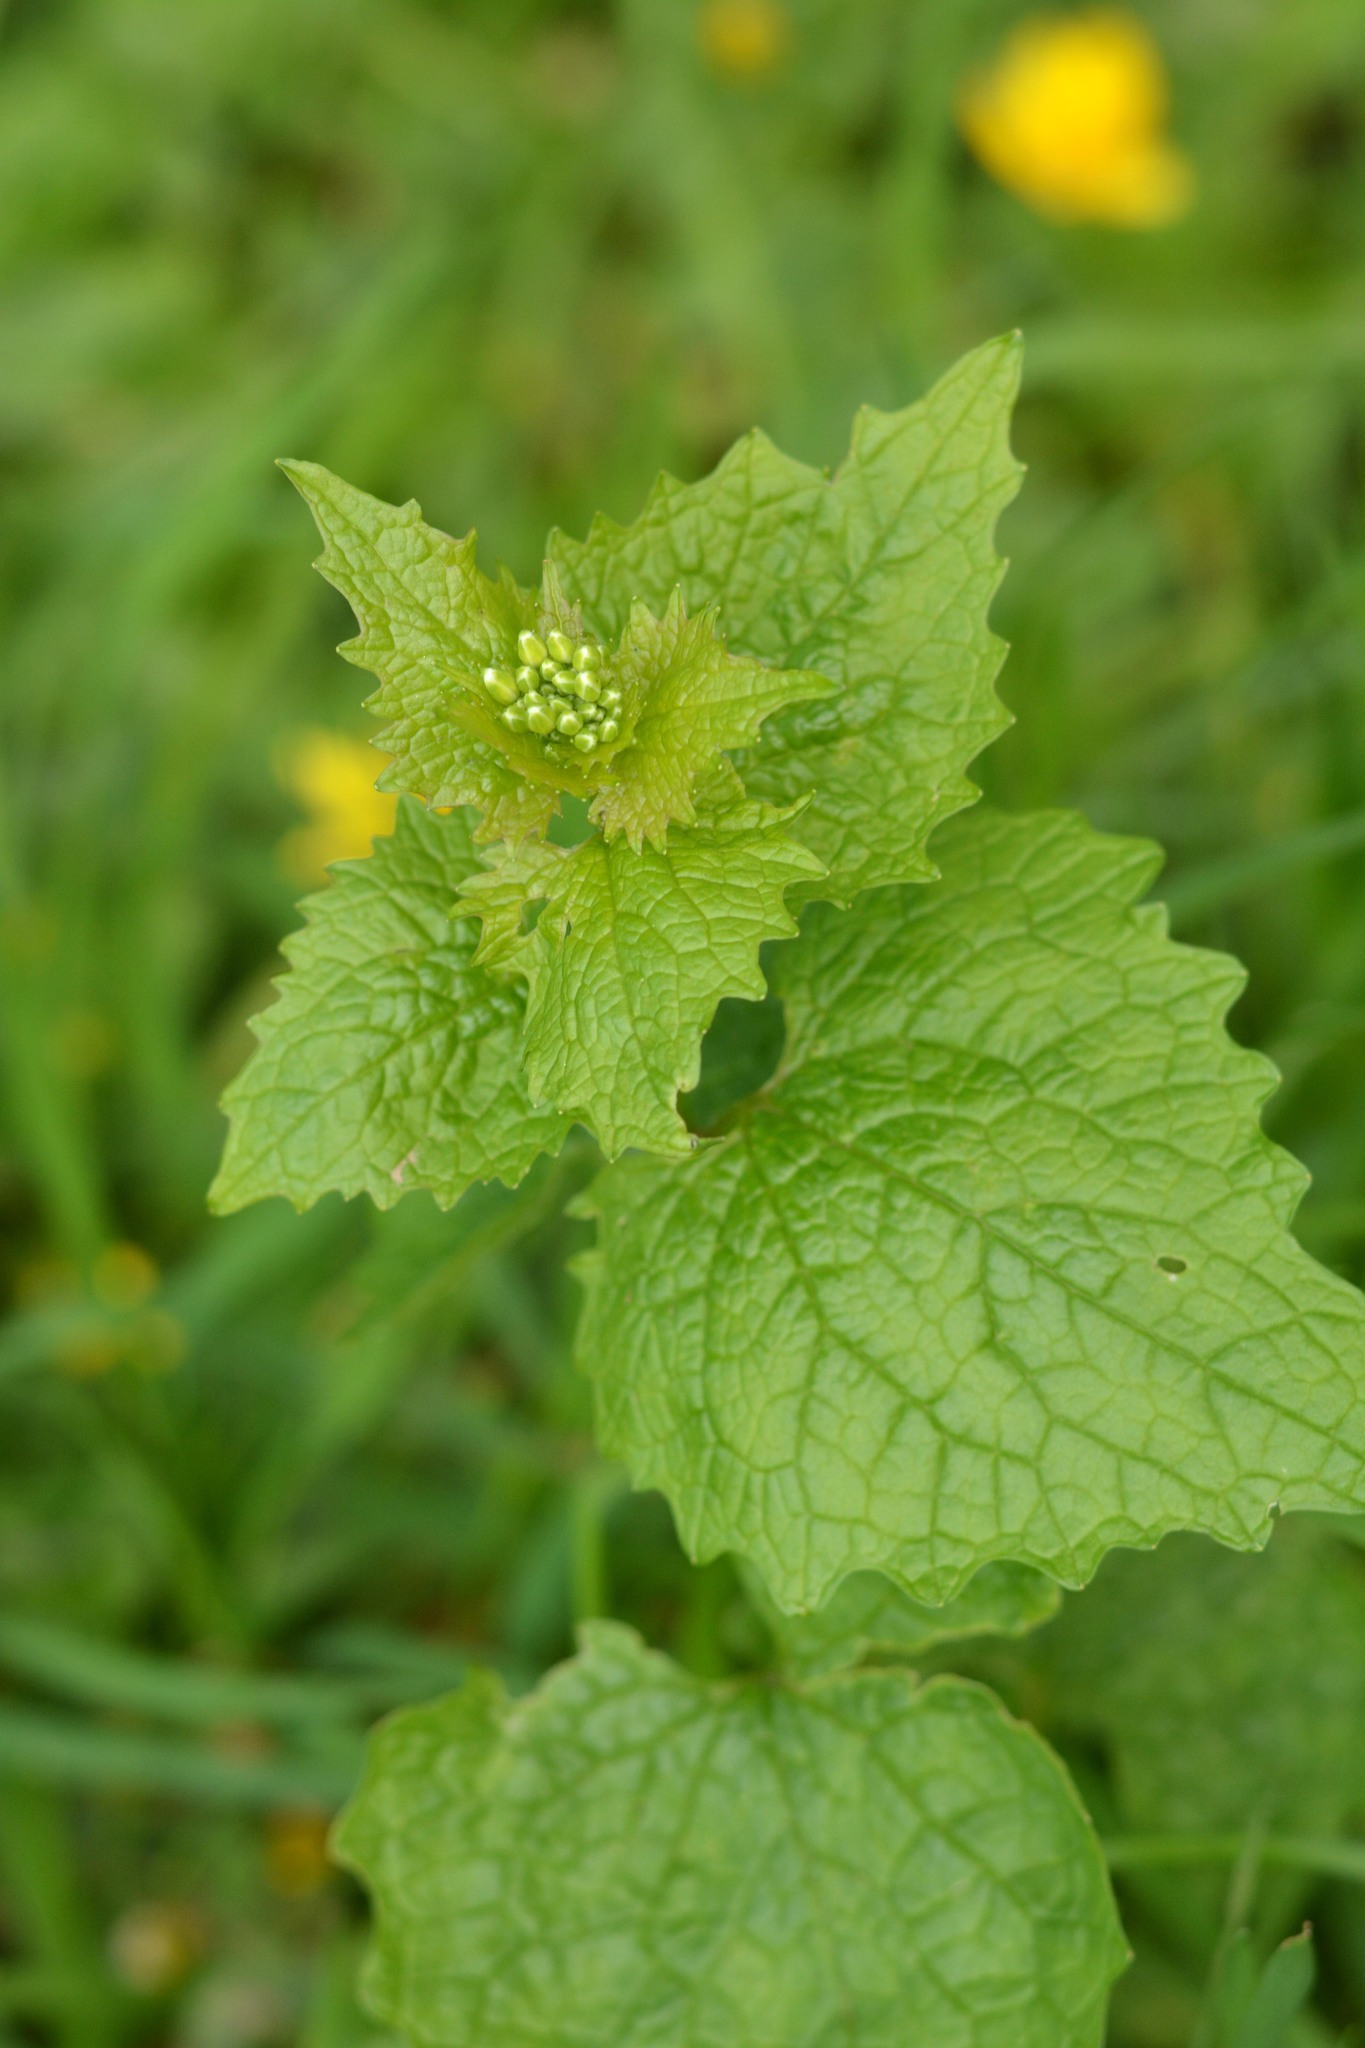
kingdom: Plantae
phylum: Tracheophyta
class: Magnoliopsida
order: Brassicales
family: Brassicaceae
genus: Alliaria
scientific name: Alliaria petiolata
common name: Garlic mustard
